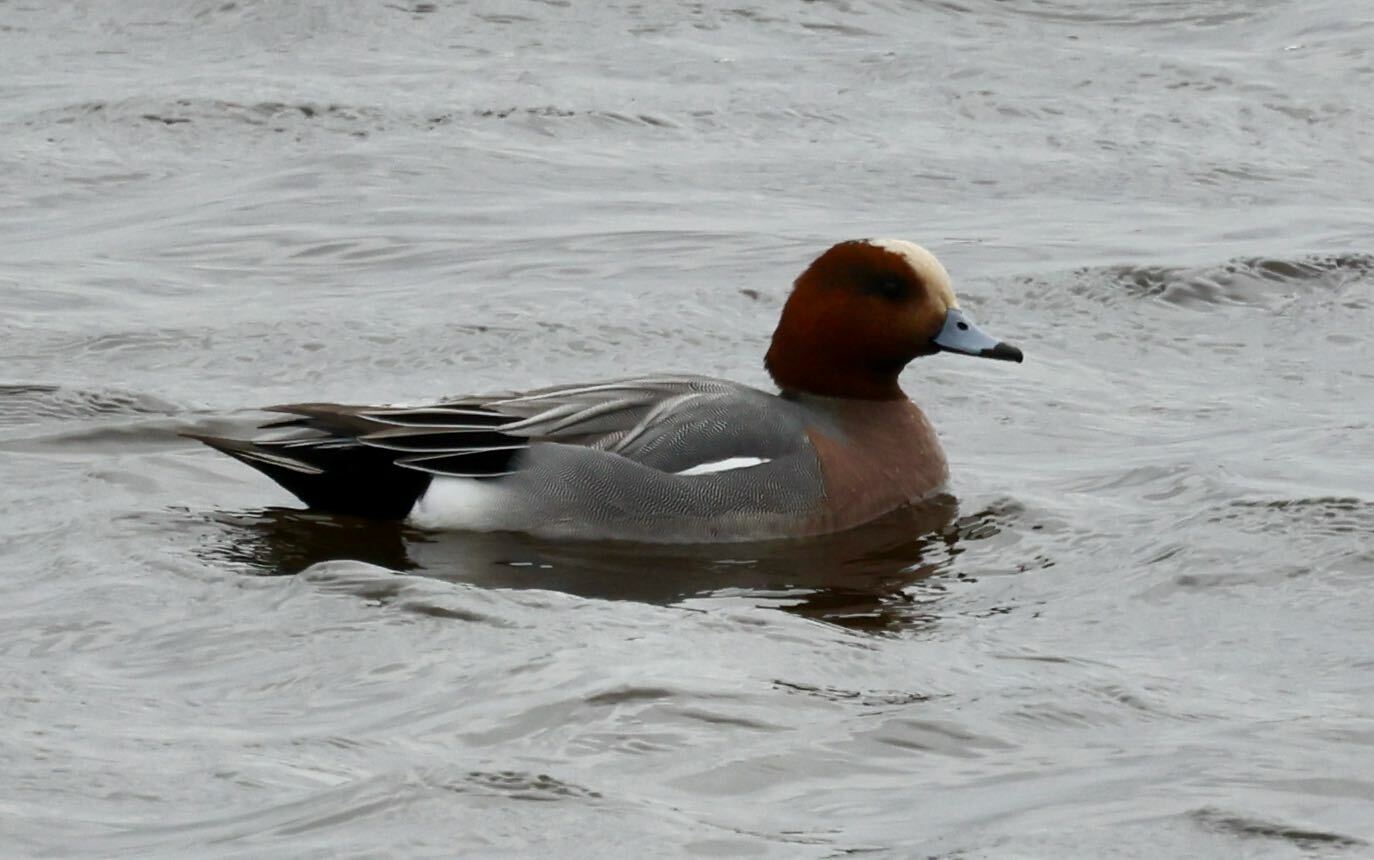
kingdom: Animalia
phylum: Chordata
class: Aves
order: Anseriformes
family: Anatidae
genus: Mareca
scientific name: Mareca penelope
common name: Eurasian wigeon
